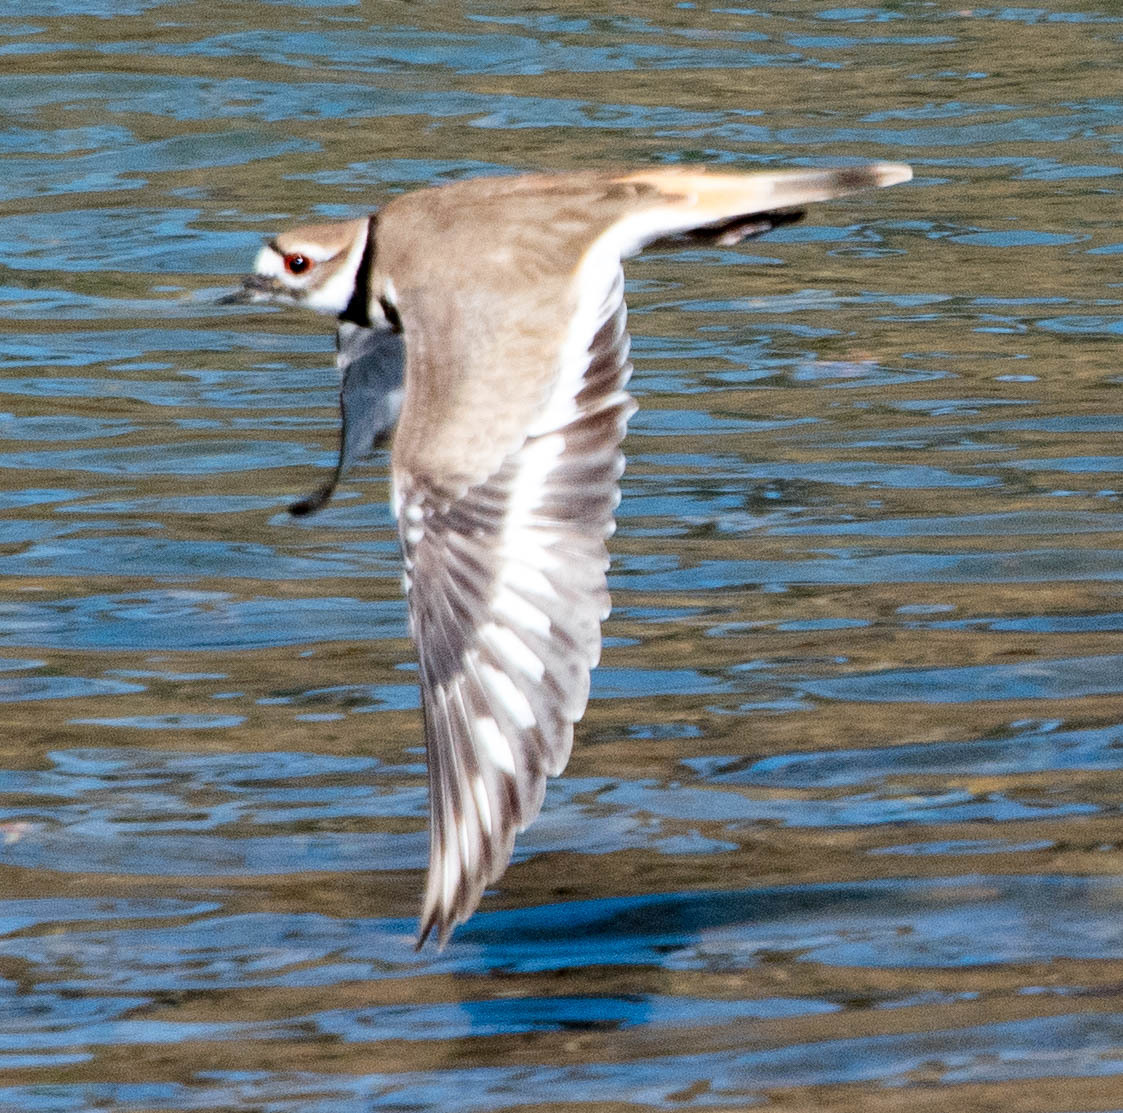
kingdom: Animalia
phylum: Chordata
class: Aves
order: Charadriiformes
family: Charadriidae
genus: Charadrius
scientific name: Charadrius vociferus
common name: Killdeer
